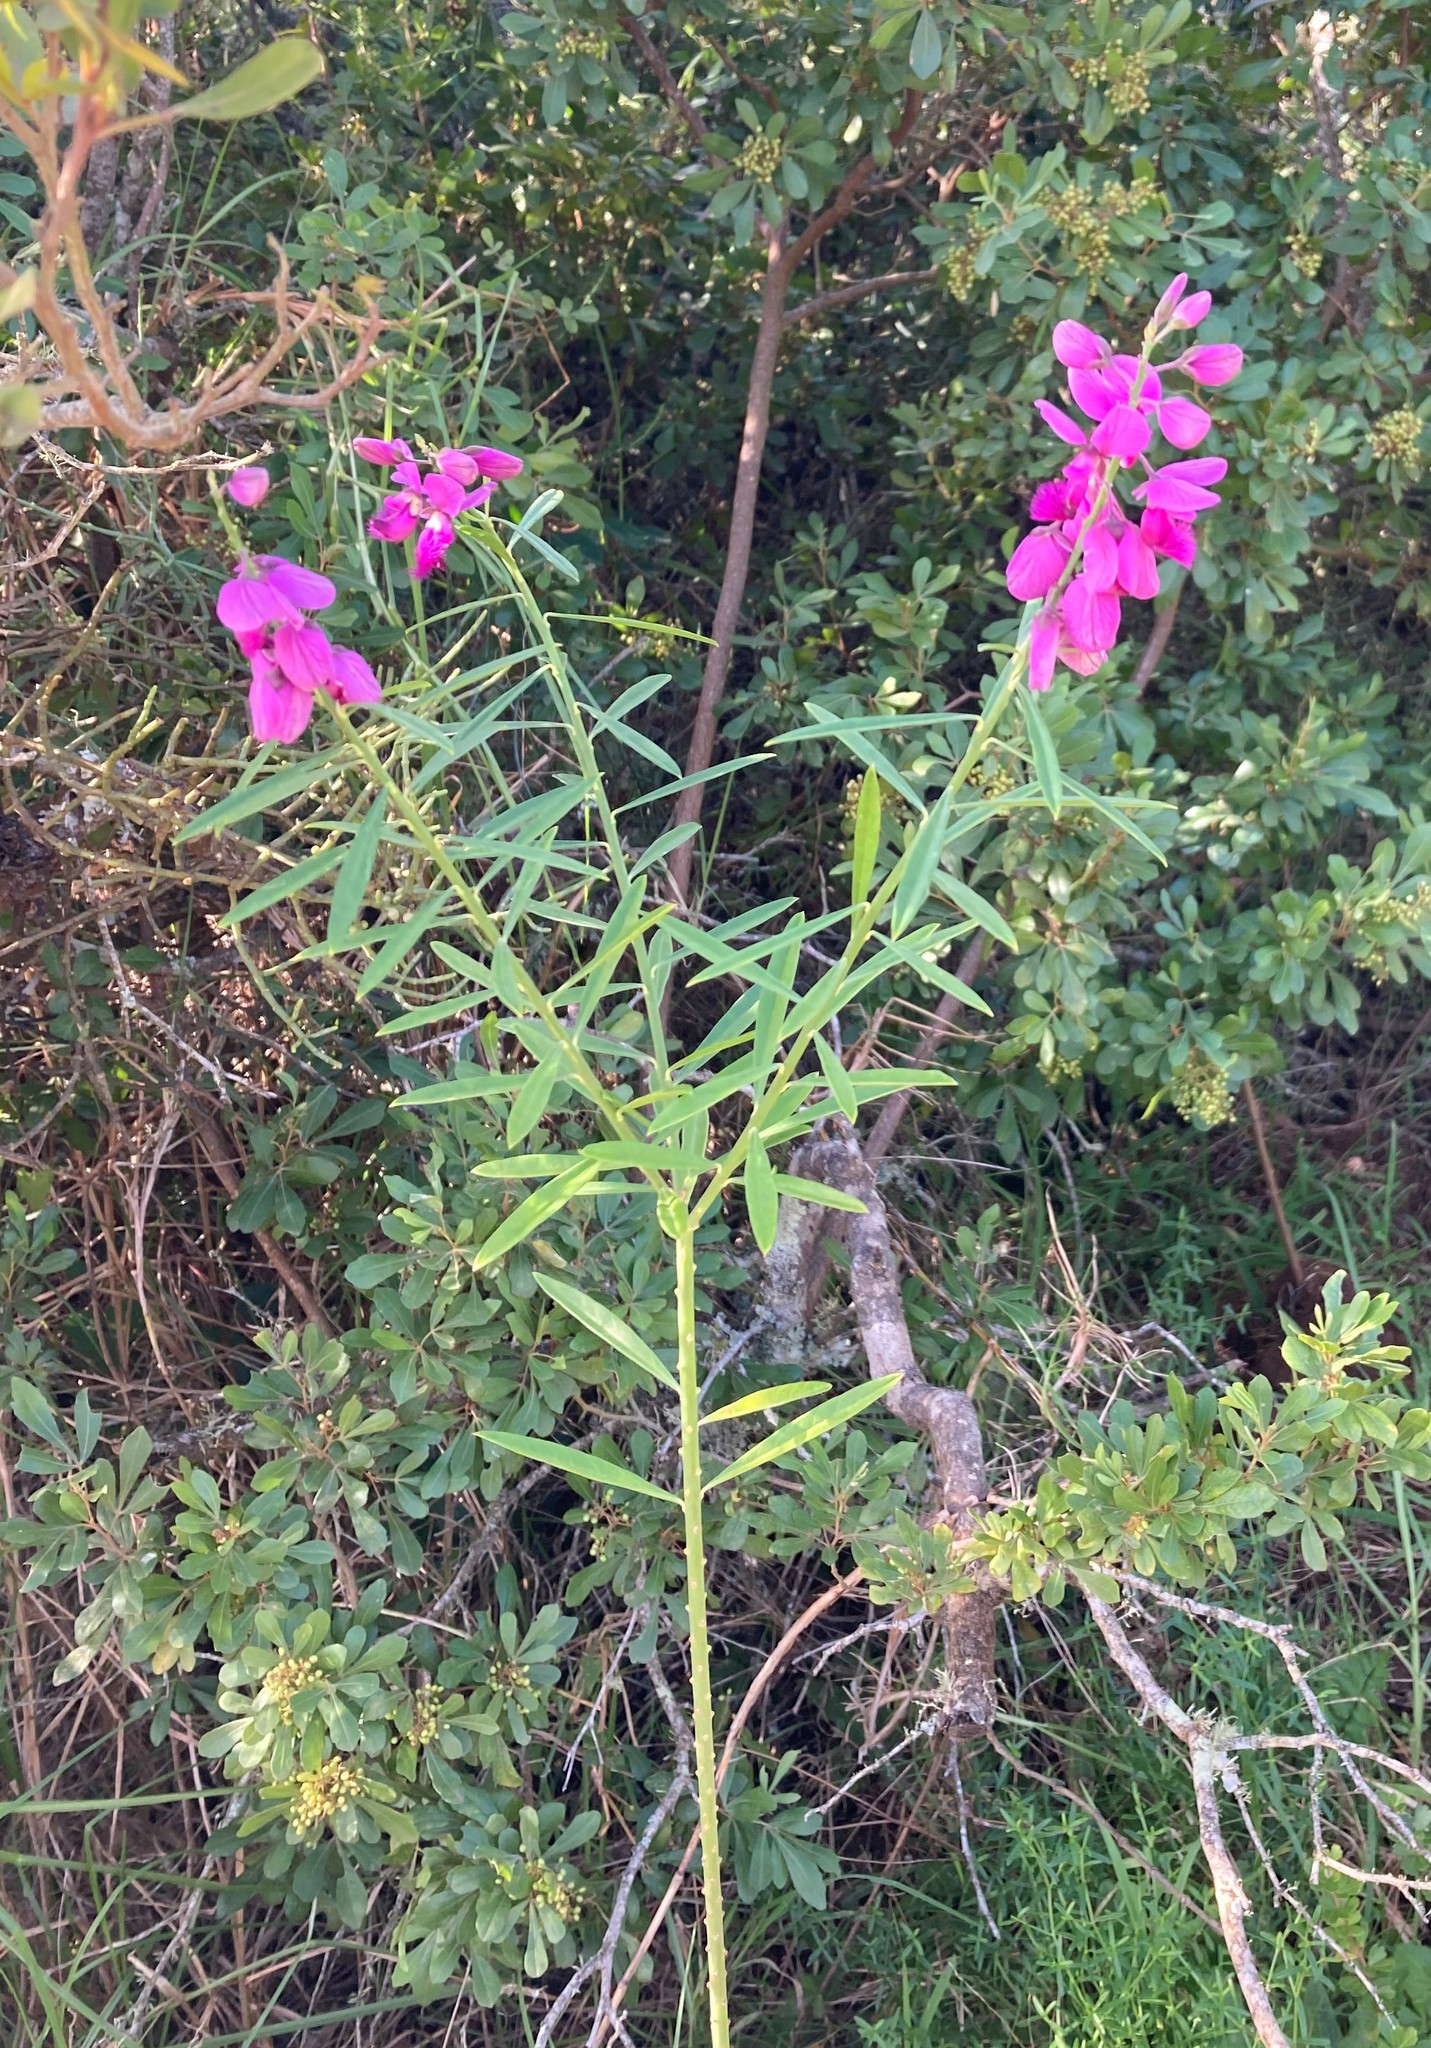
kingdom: Plantae
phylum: Tracheophyta
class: Magnoliopsida
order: Fabales
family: Polygalaceae
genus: Polygala
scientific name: Polygala virgata
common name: Milkwort
